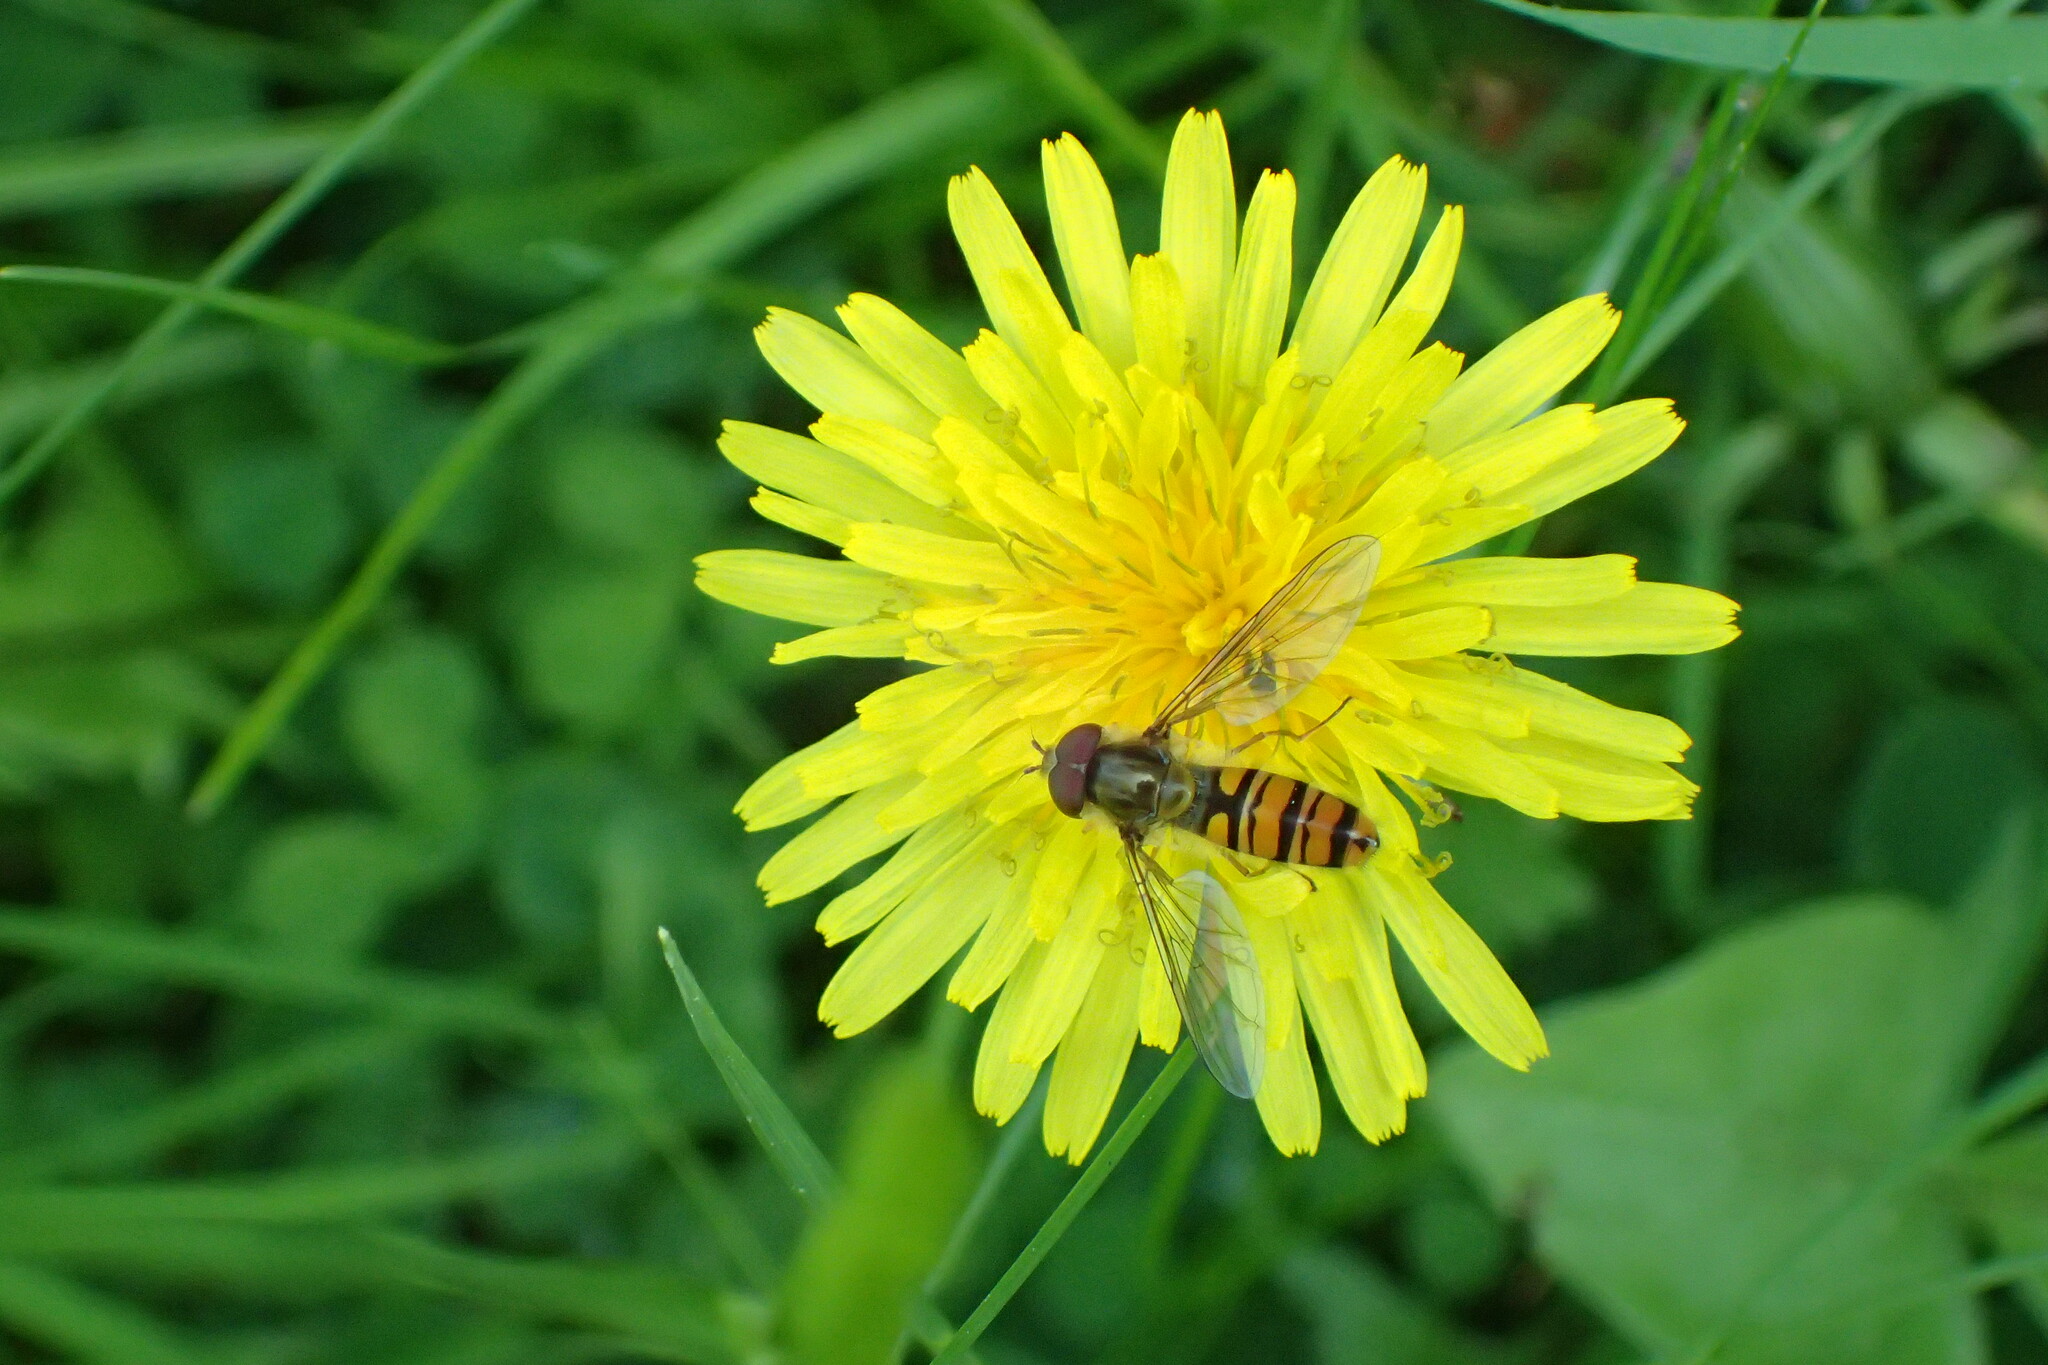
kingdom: Animalia
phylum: Arthropoda
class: Insecta
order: Diptera
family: Syrphidae
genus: Episyrphus
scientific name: Episyrphus balteatus
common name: Marmalade hoverfly
